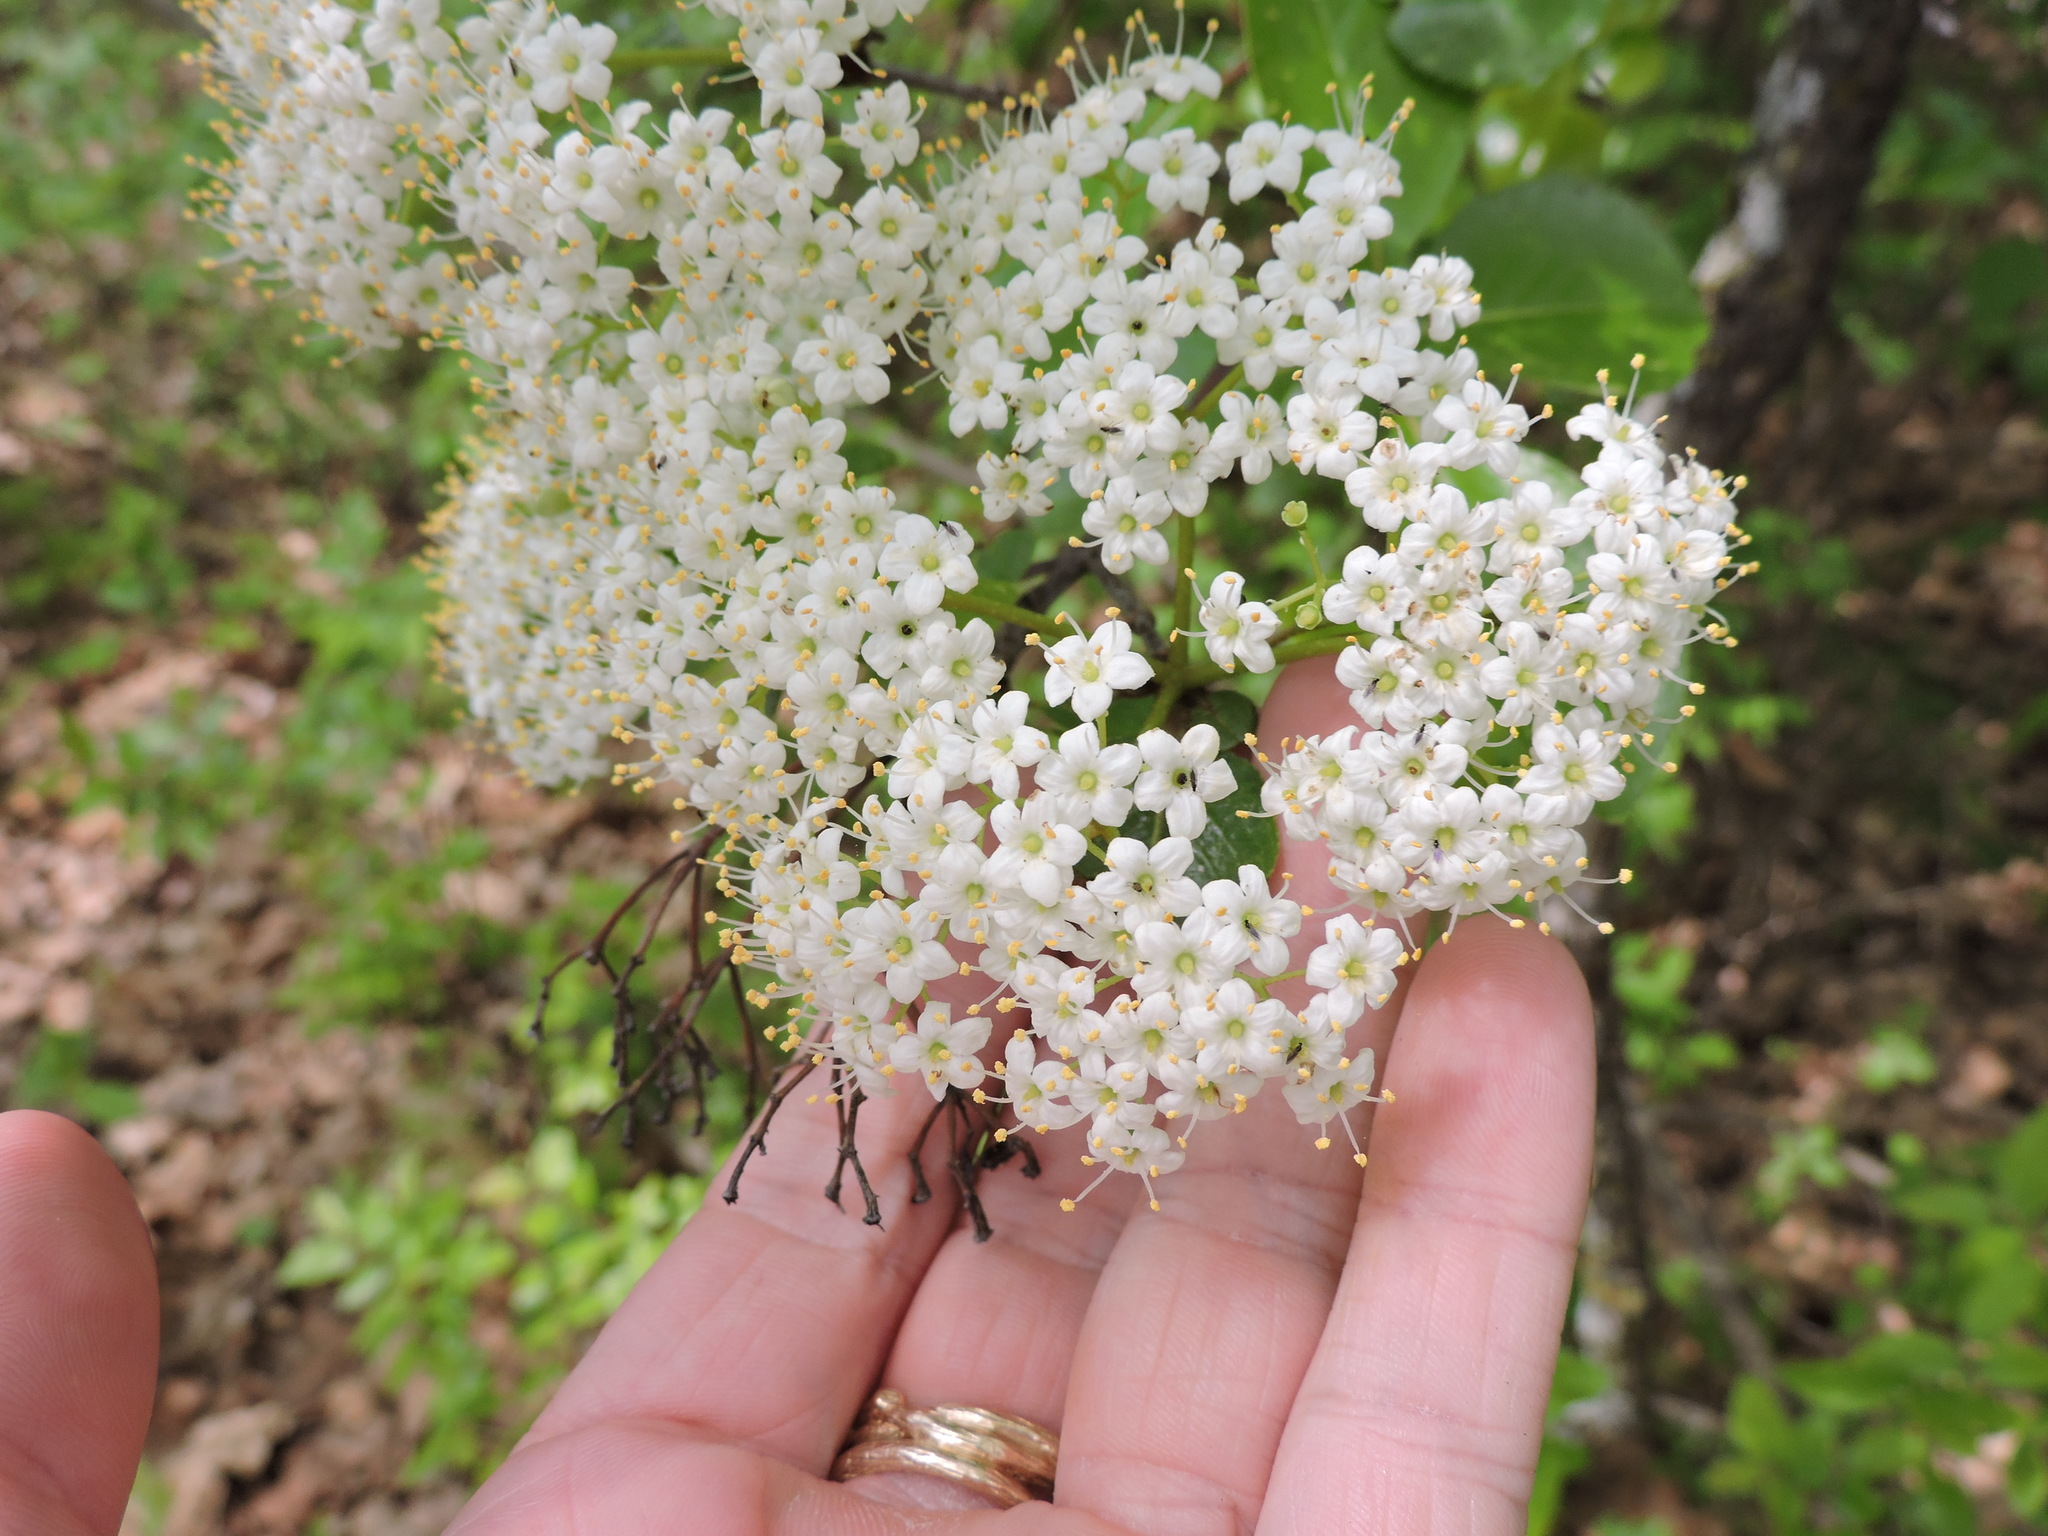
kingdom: Plantae
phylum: Tracheophyta
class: Magnoliopsida
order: Dipsacales
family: Viburnaceae
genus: Viburnum
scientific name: Viburnum rufidulum
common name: Blue haw
